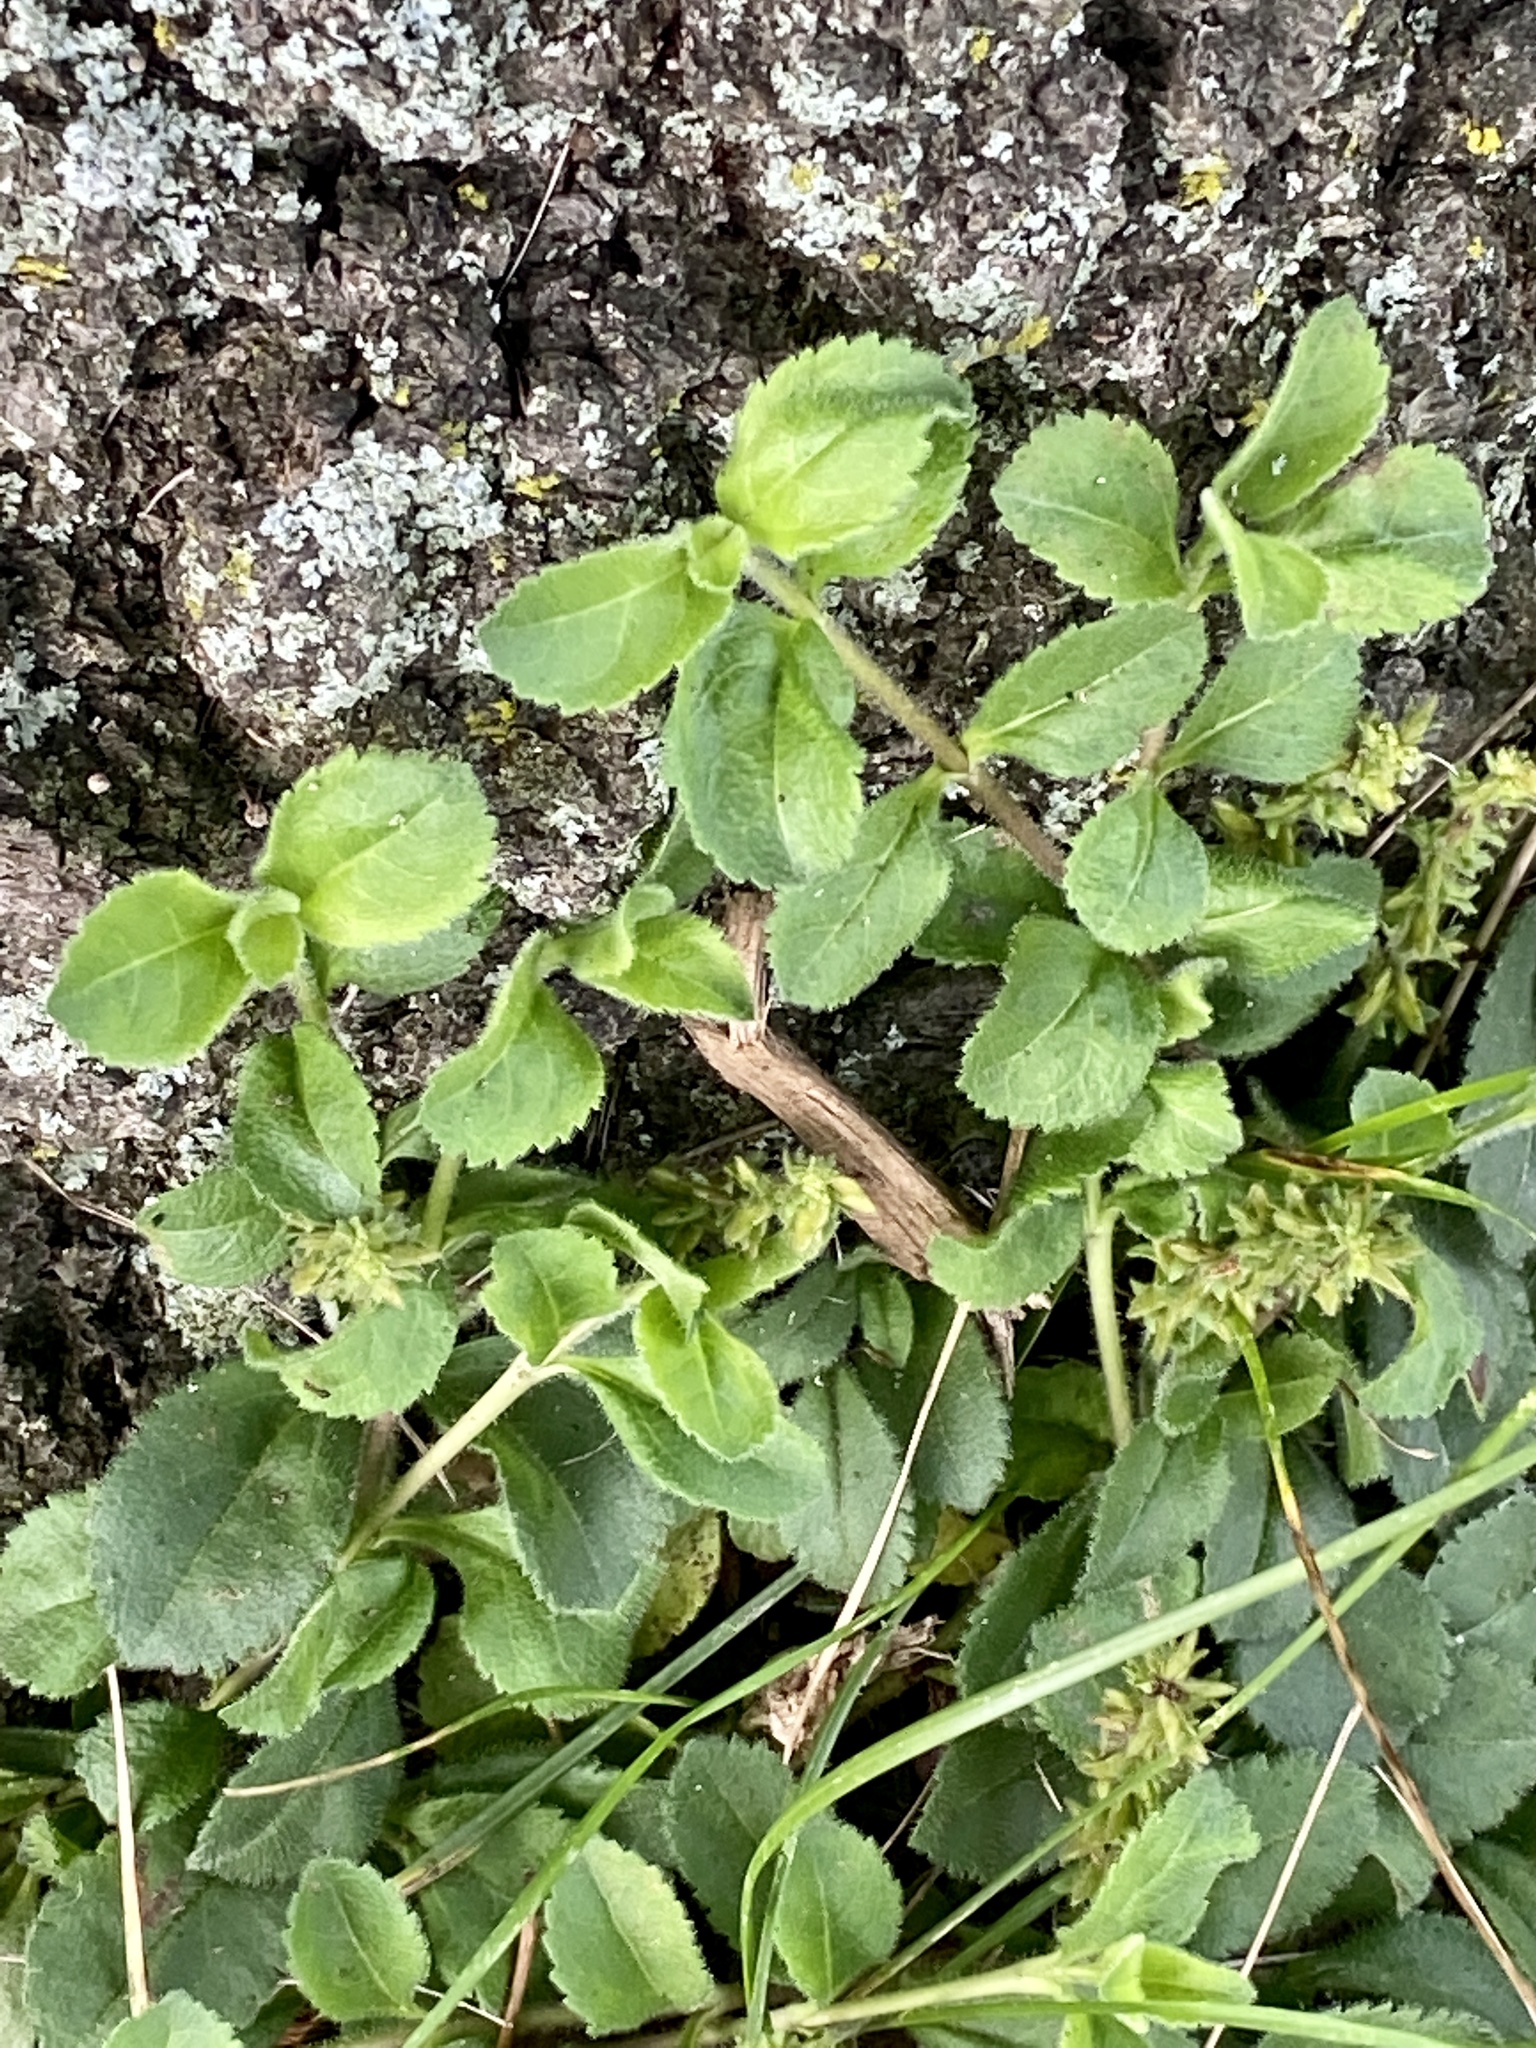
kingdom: Plantae
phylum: Tracheophyta
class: Magnoliopsida
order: Lamiales
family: Plantaginaceae
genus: Veronica
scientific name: Veronica officinalis
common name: Common speedwell
